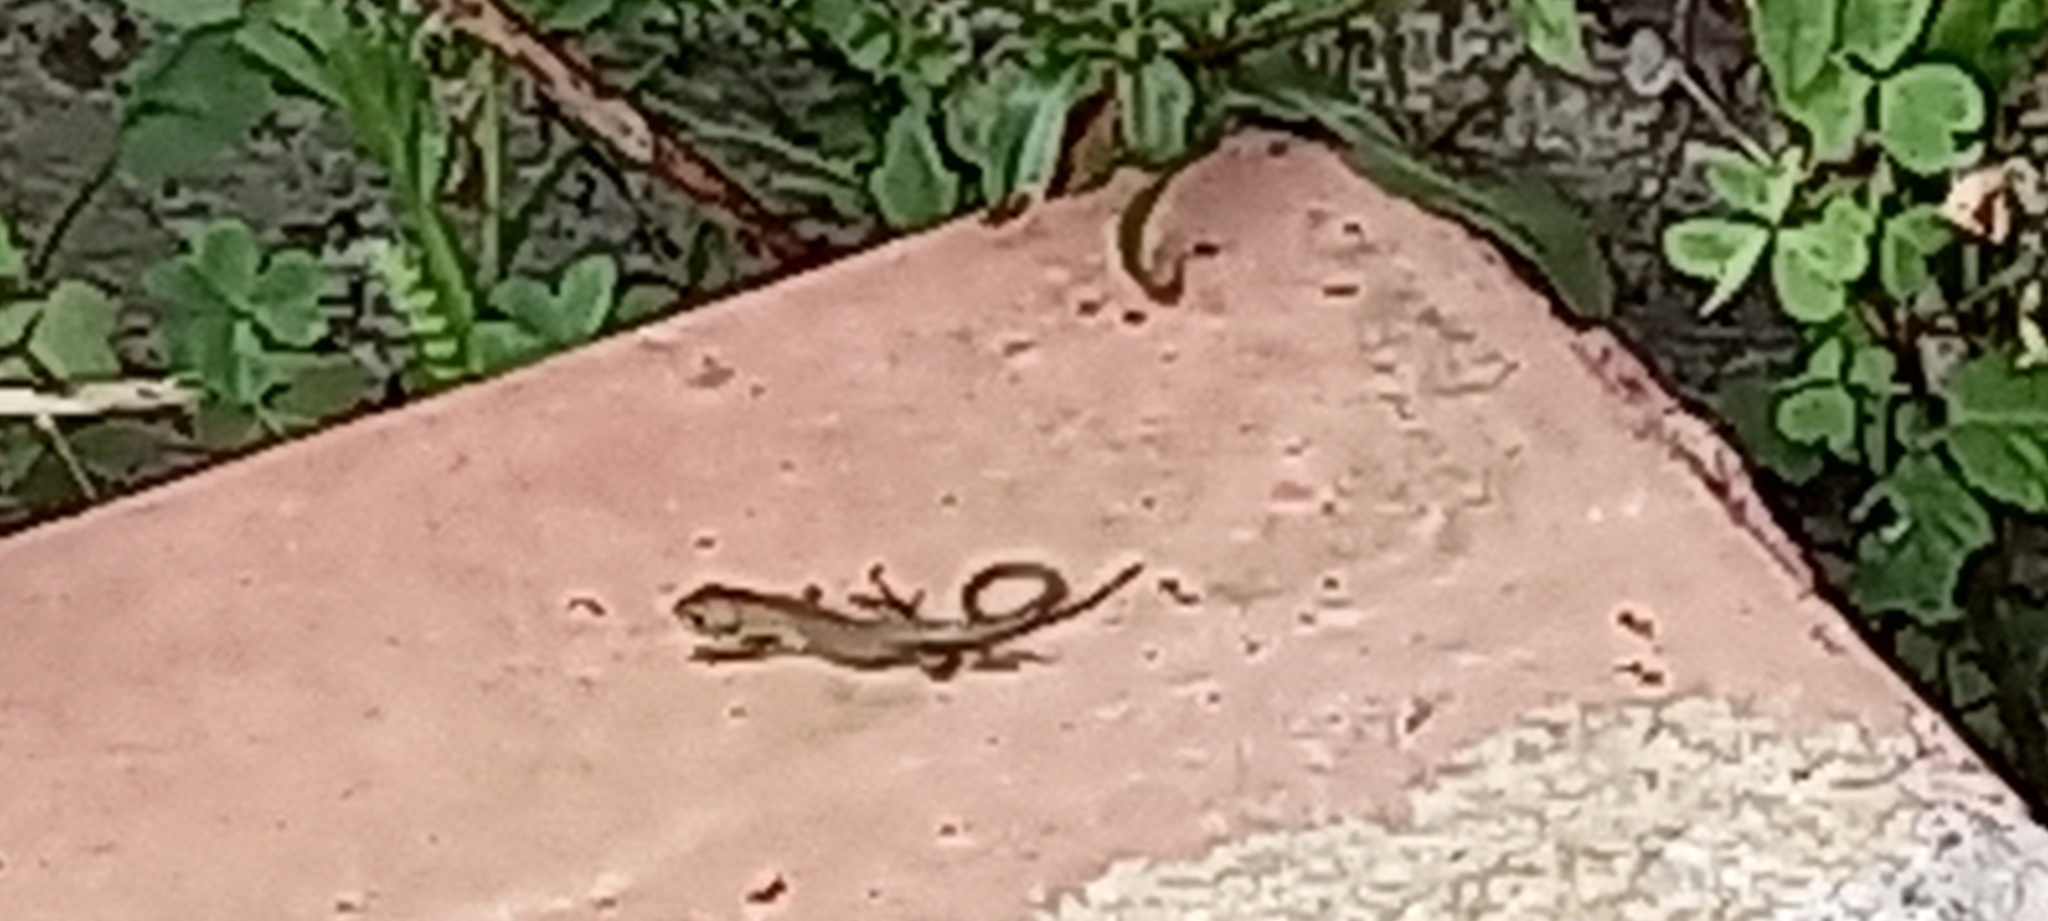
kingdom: Animalia
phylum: Chordata
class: Squamata
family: Lacertidae
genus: Lacerta
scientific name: Lacerta viridis
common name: European green lizard
